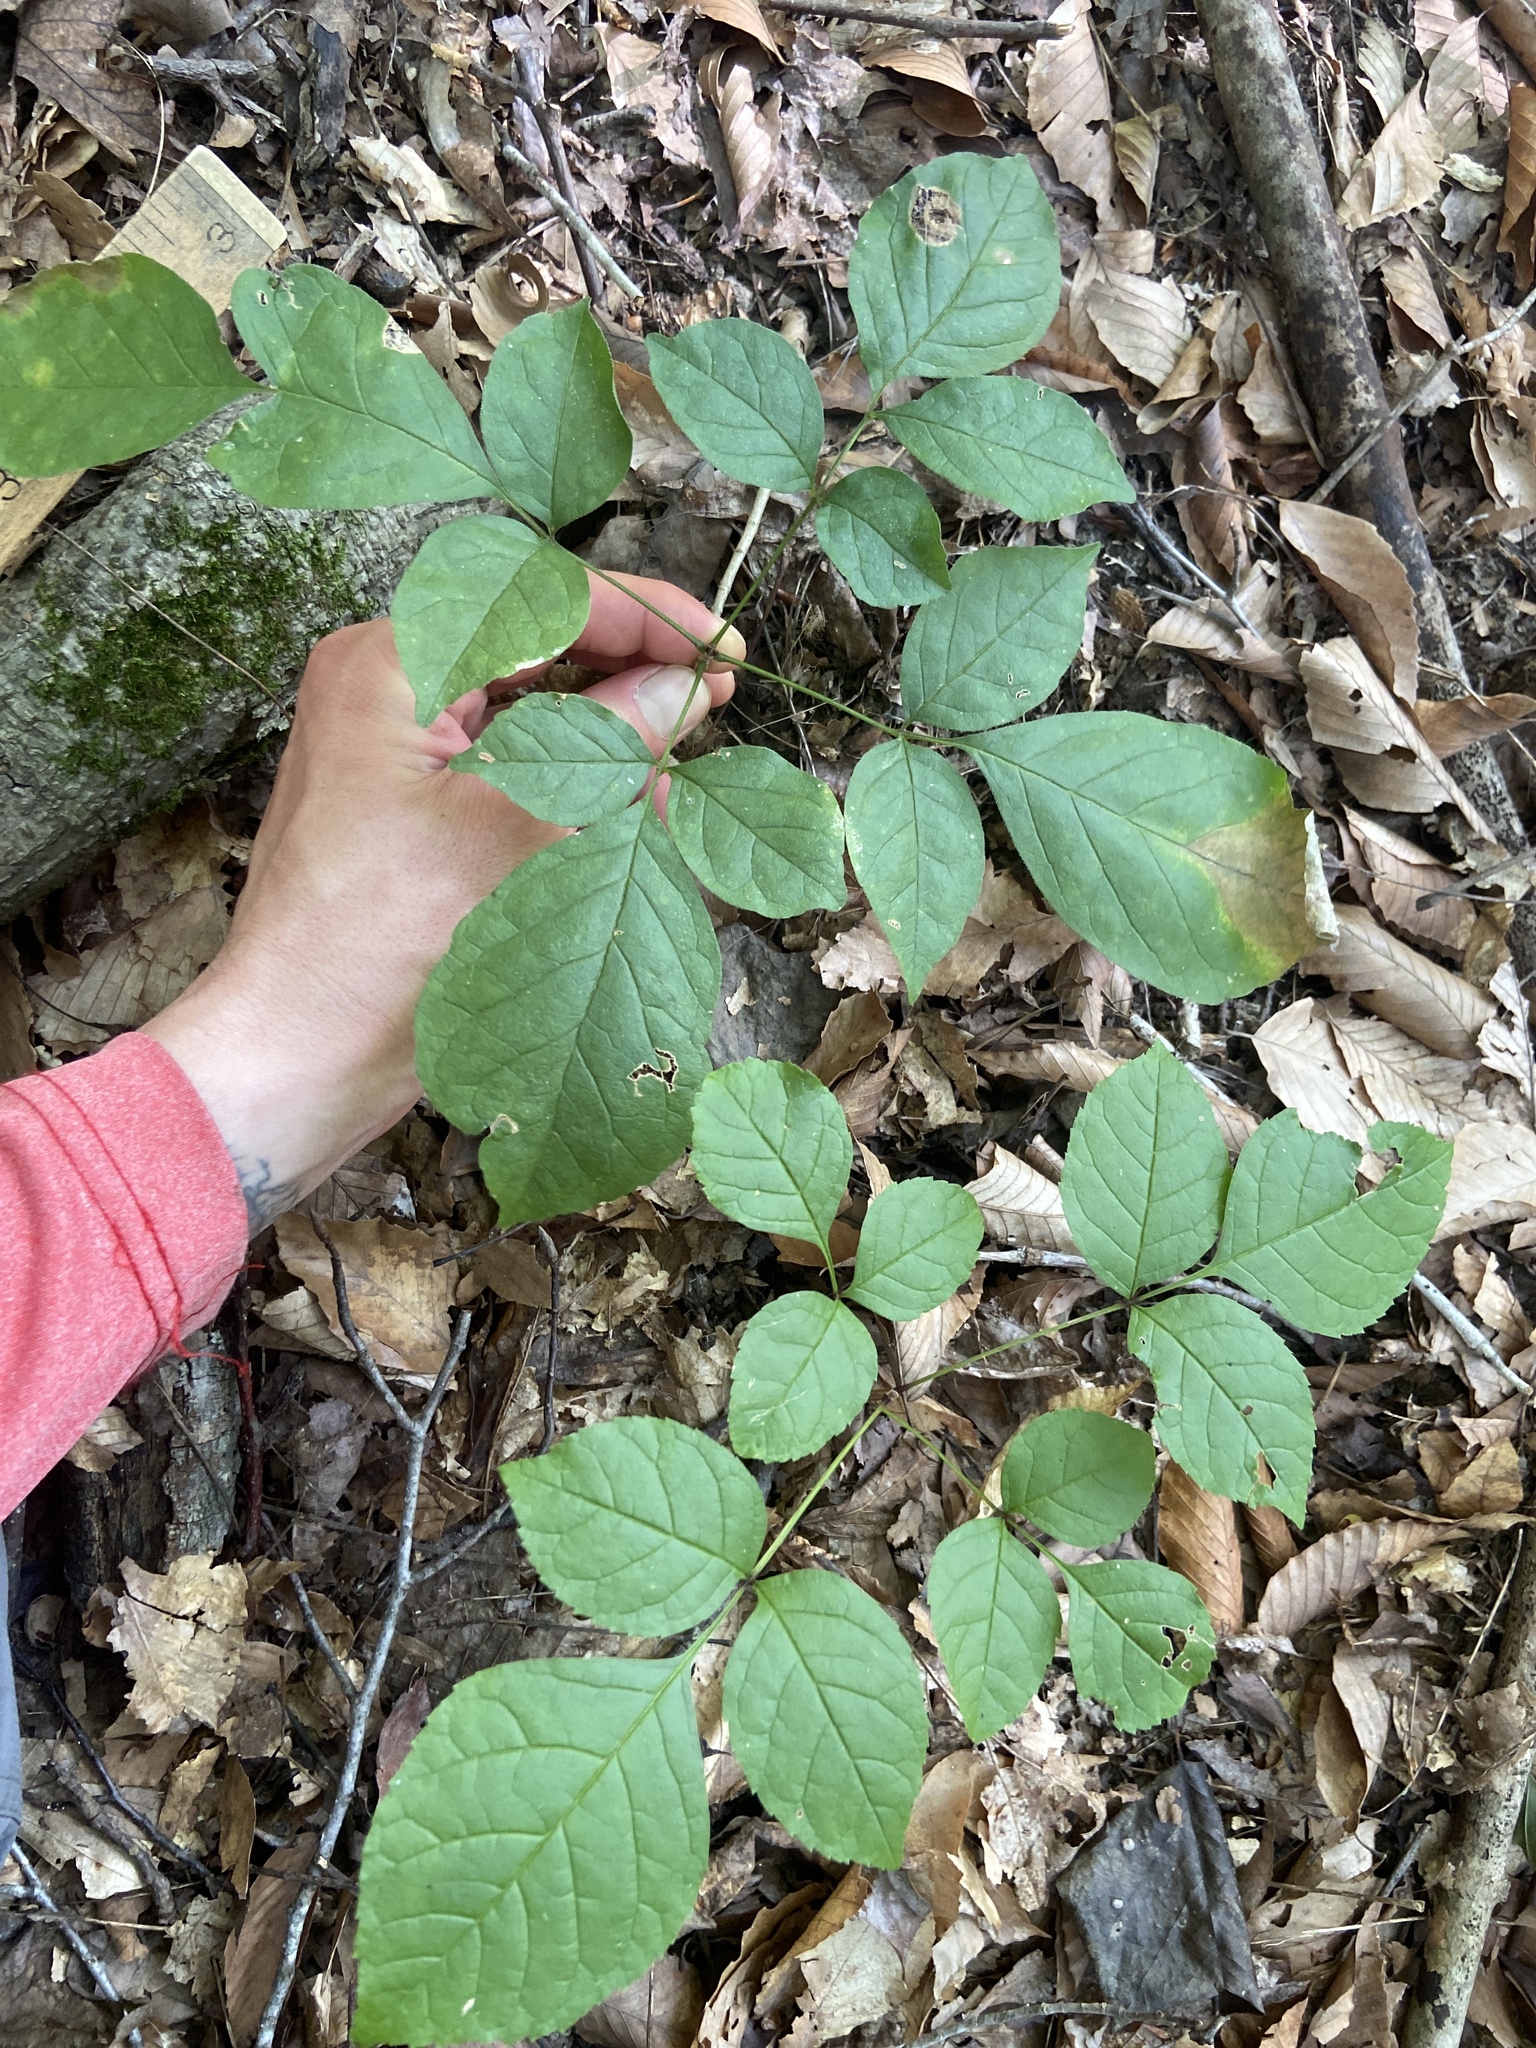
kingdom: Plantae
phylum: Tracheophyta
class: Magnoliopsida
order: Lamiales
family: Oleaceae
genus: Fraxinus
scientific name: Fraxinus quadrangulata
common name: Blue ash
